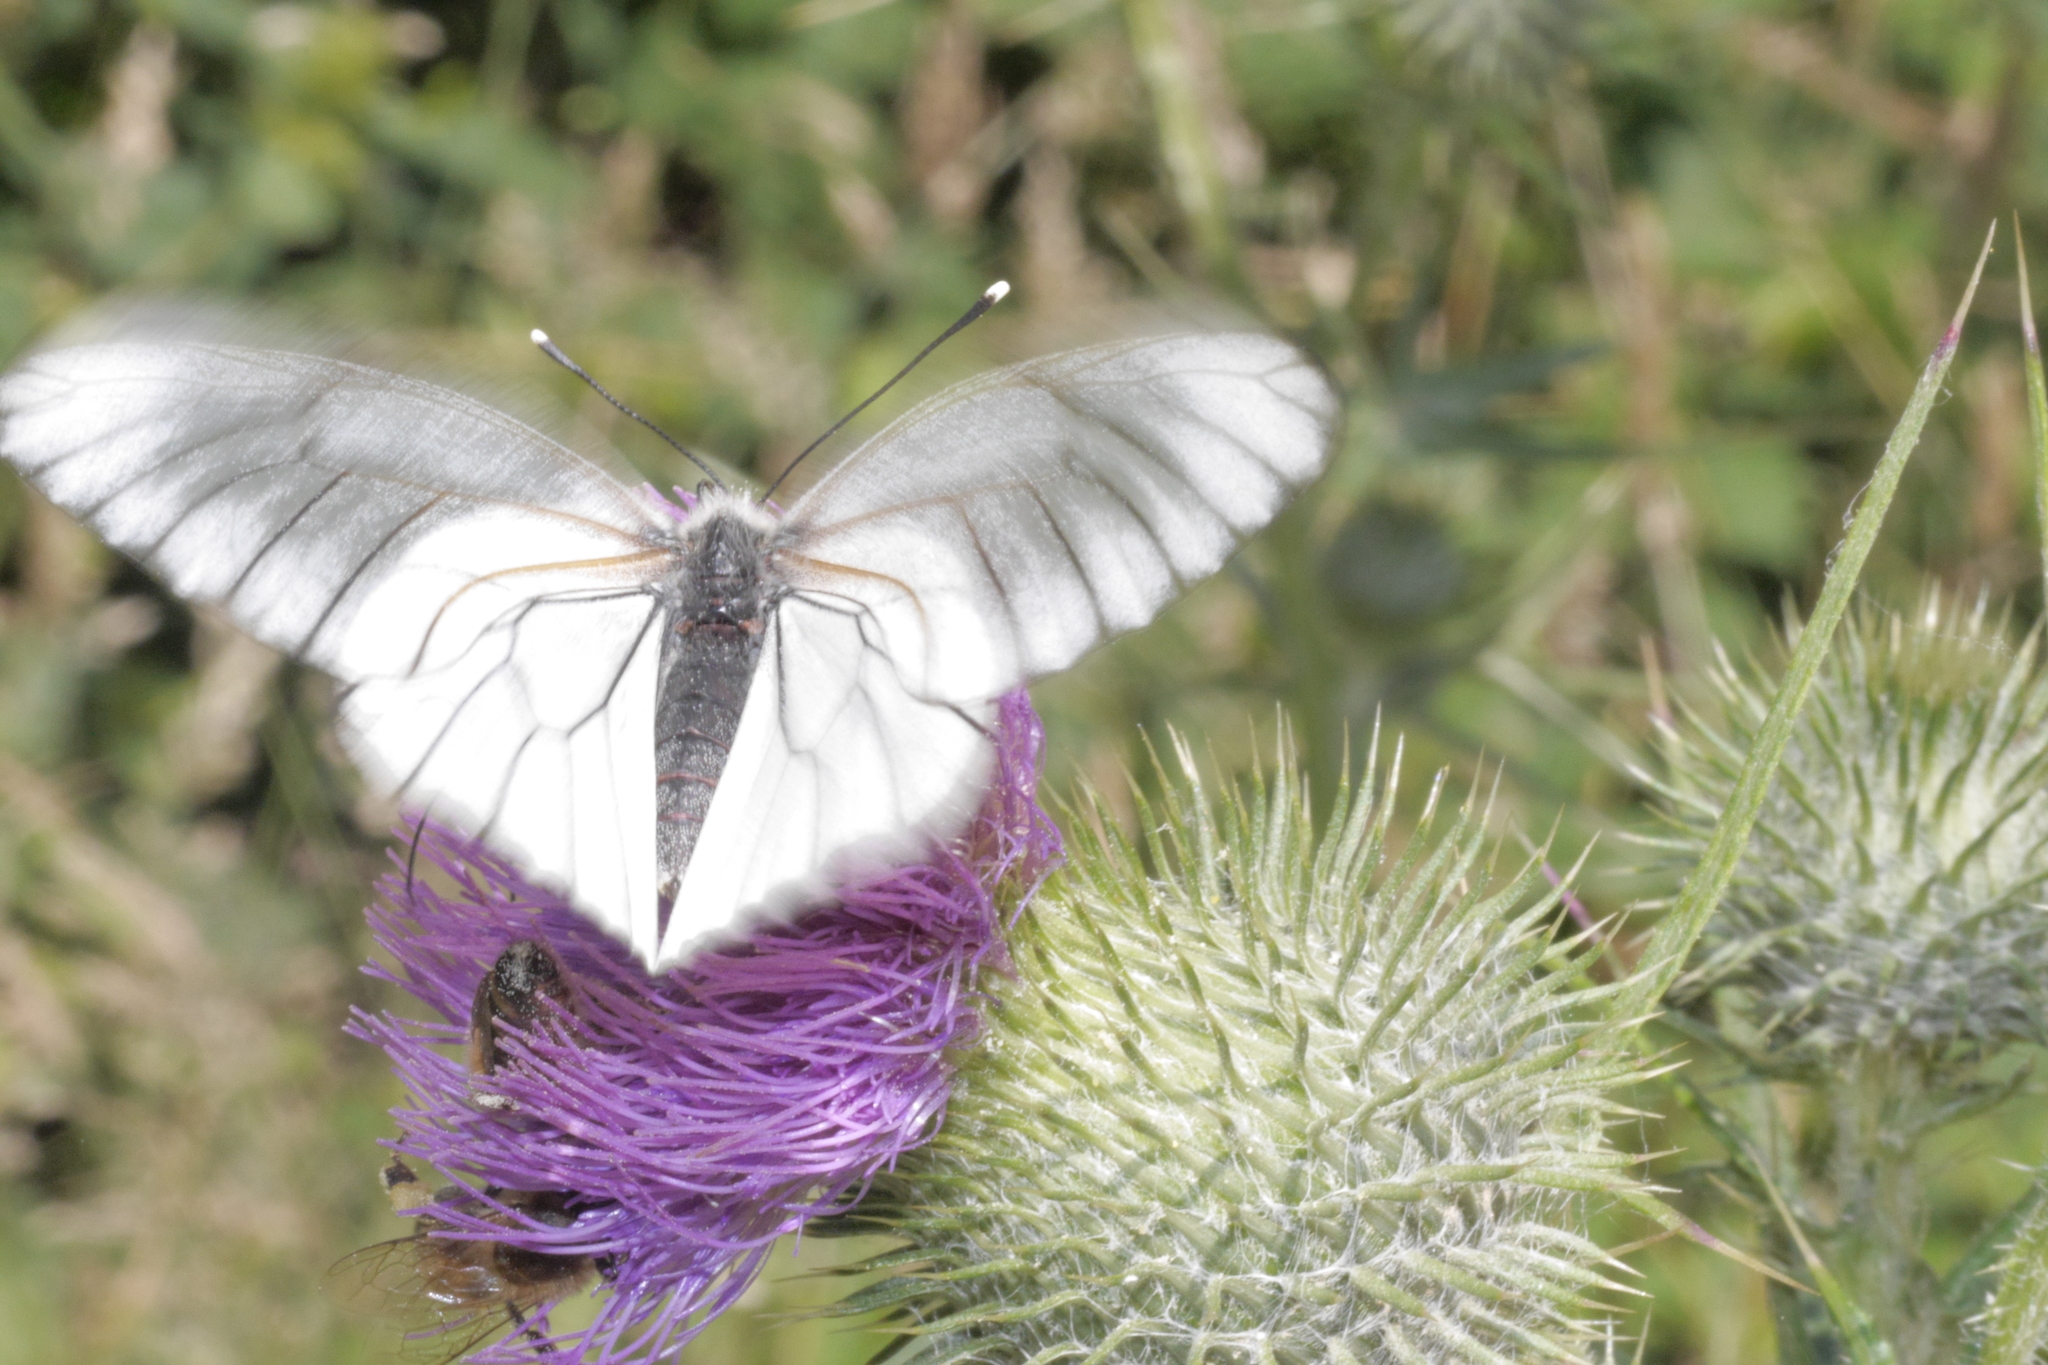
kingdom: Animalia
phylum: Arthropoda
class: Insecta
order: Lepidoptera
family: Pieridae
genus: Aporia
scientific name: Aporia crataegi
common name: Black-veined white
